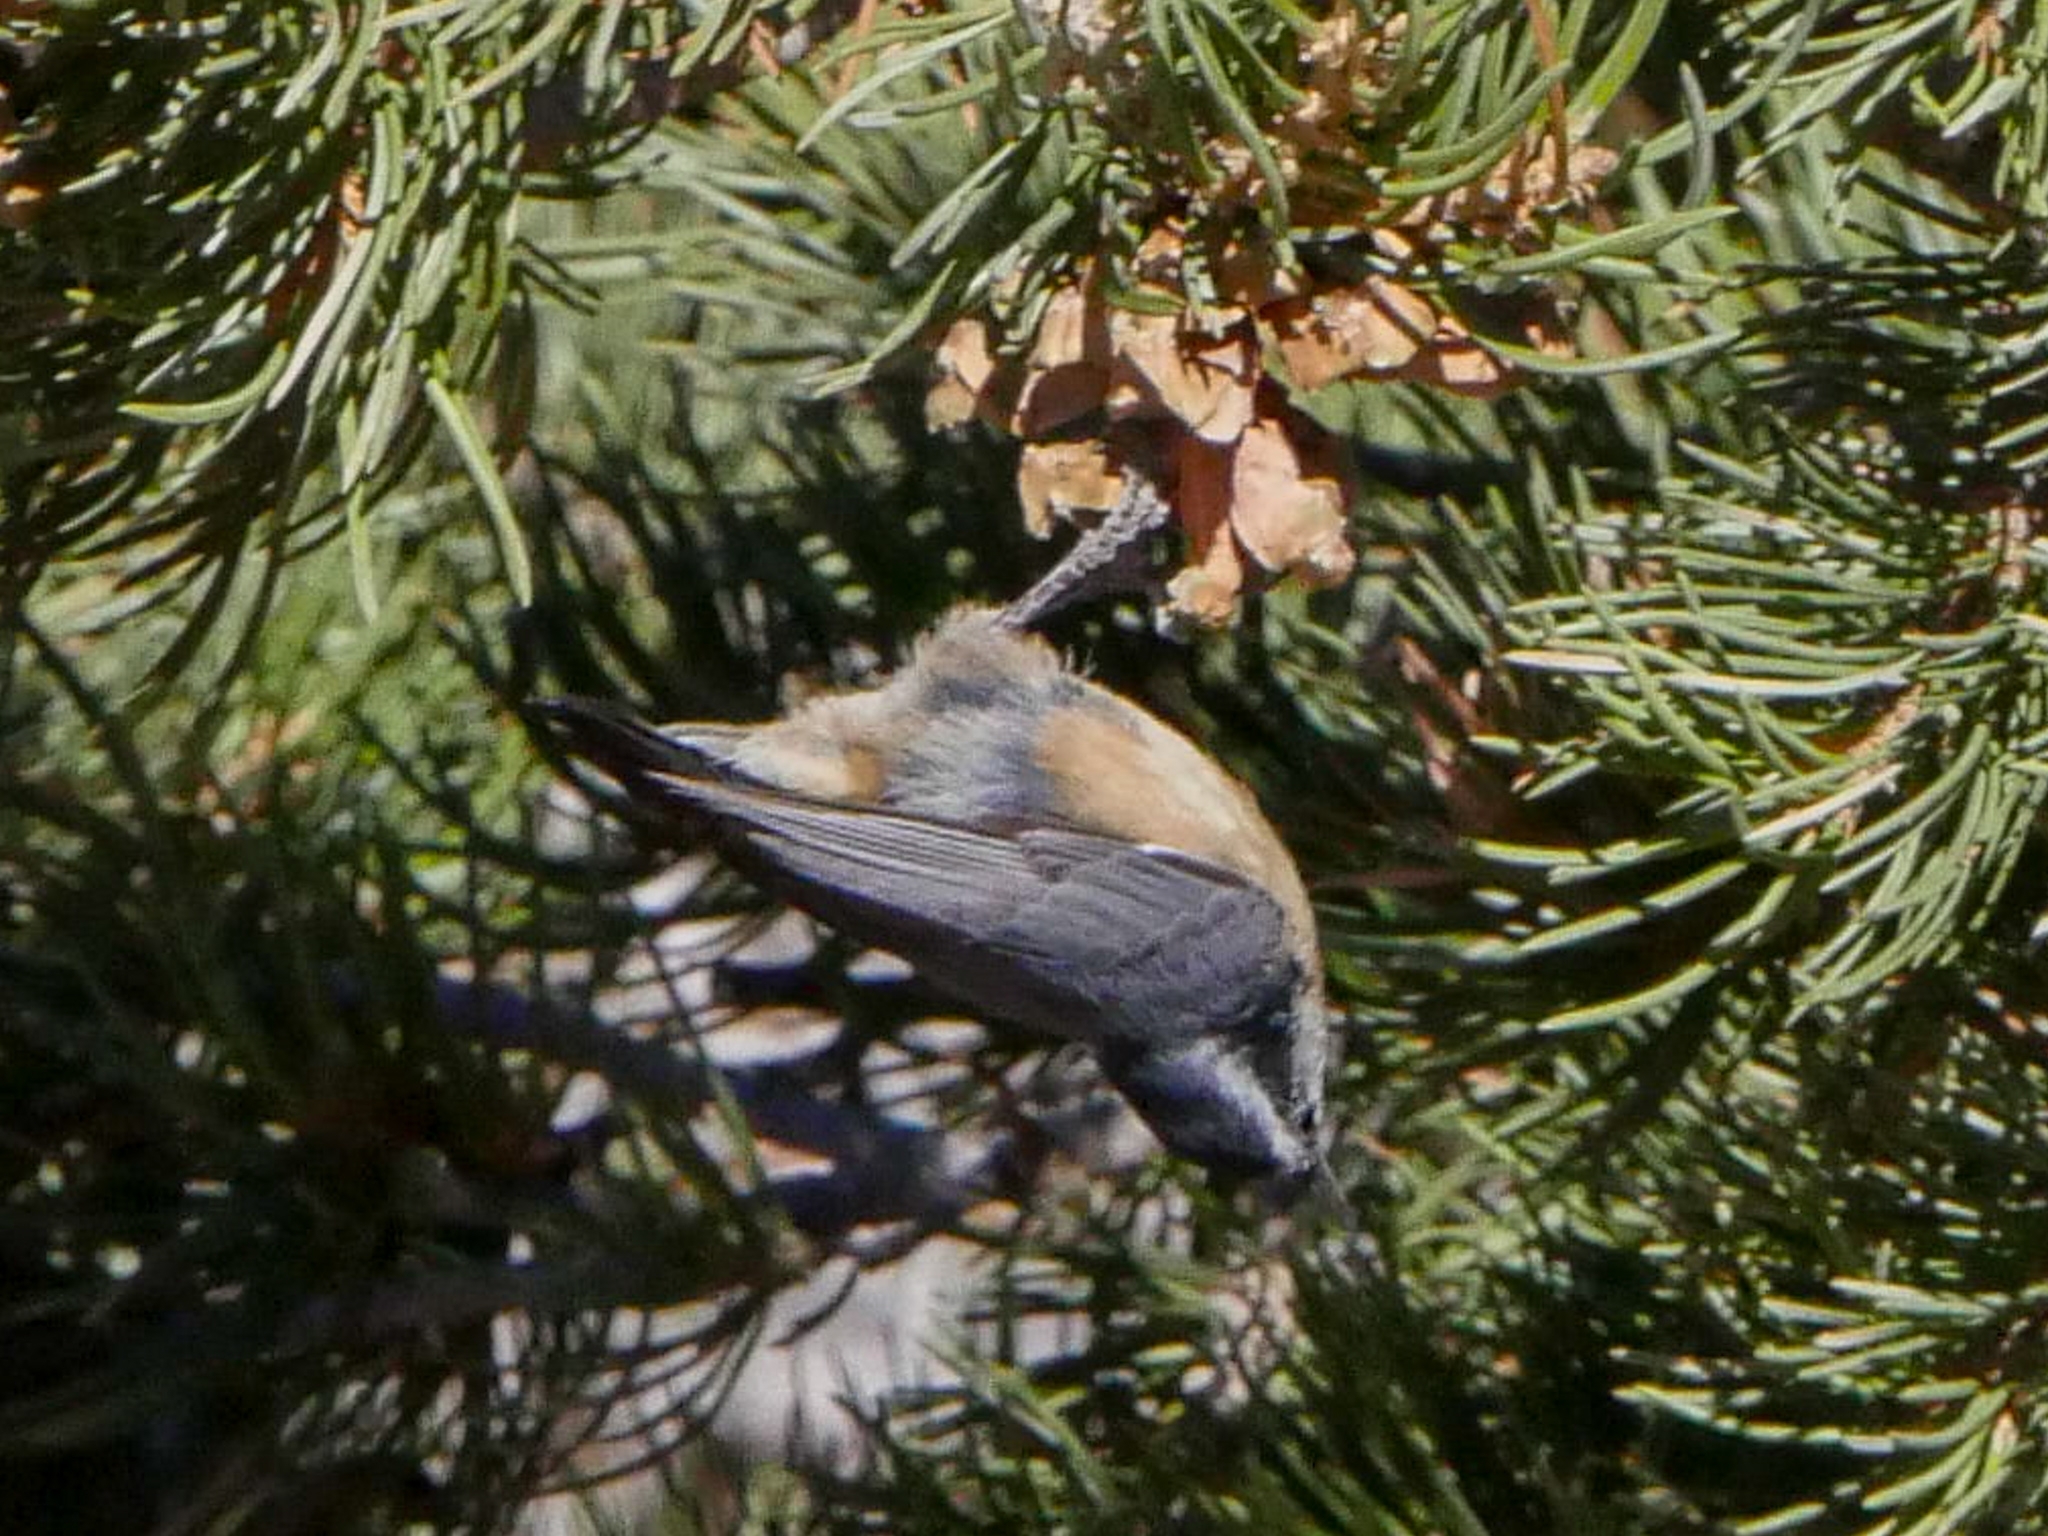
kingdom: Animalia
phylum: Chordata
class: Aves
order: Passeriformes
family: Sittidae
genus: Sitta
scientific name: Sitta canadensis
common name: Red-breasted nuthatch
